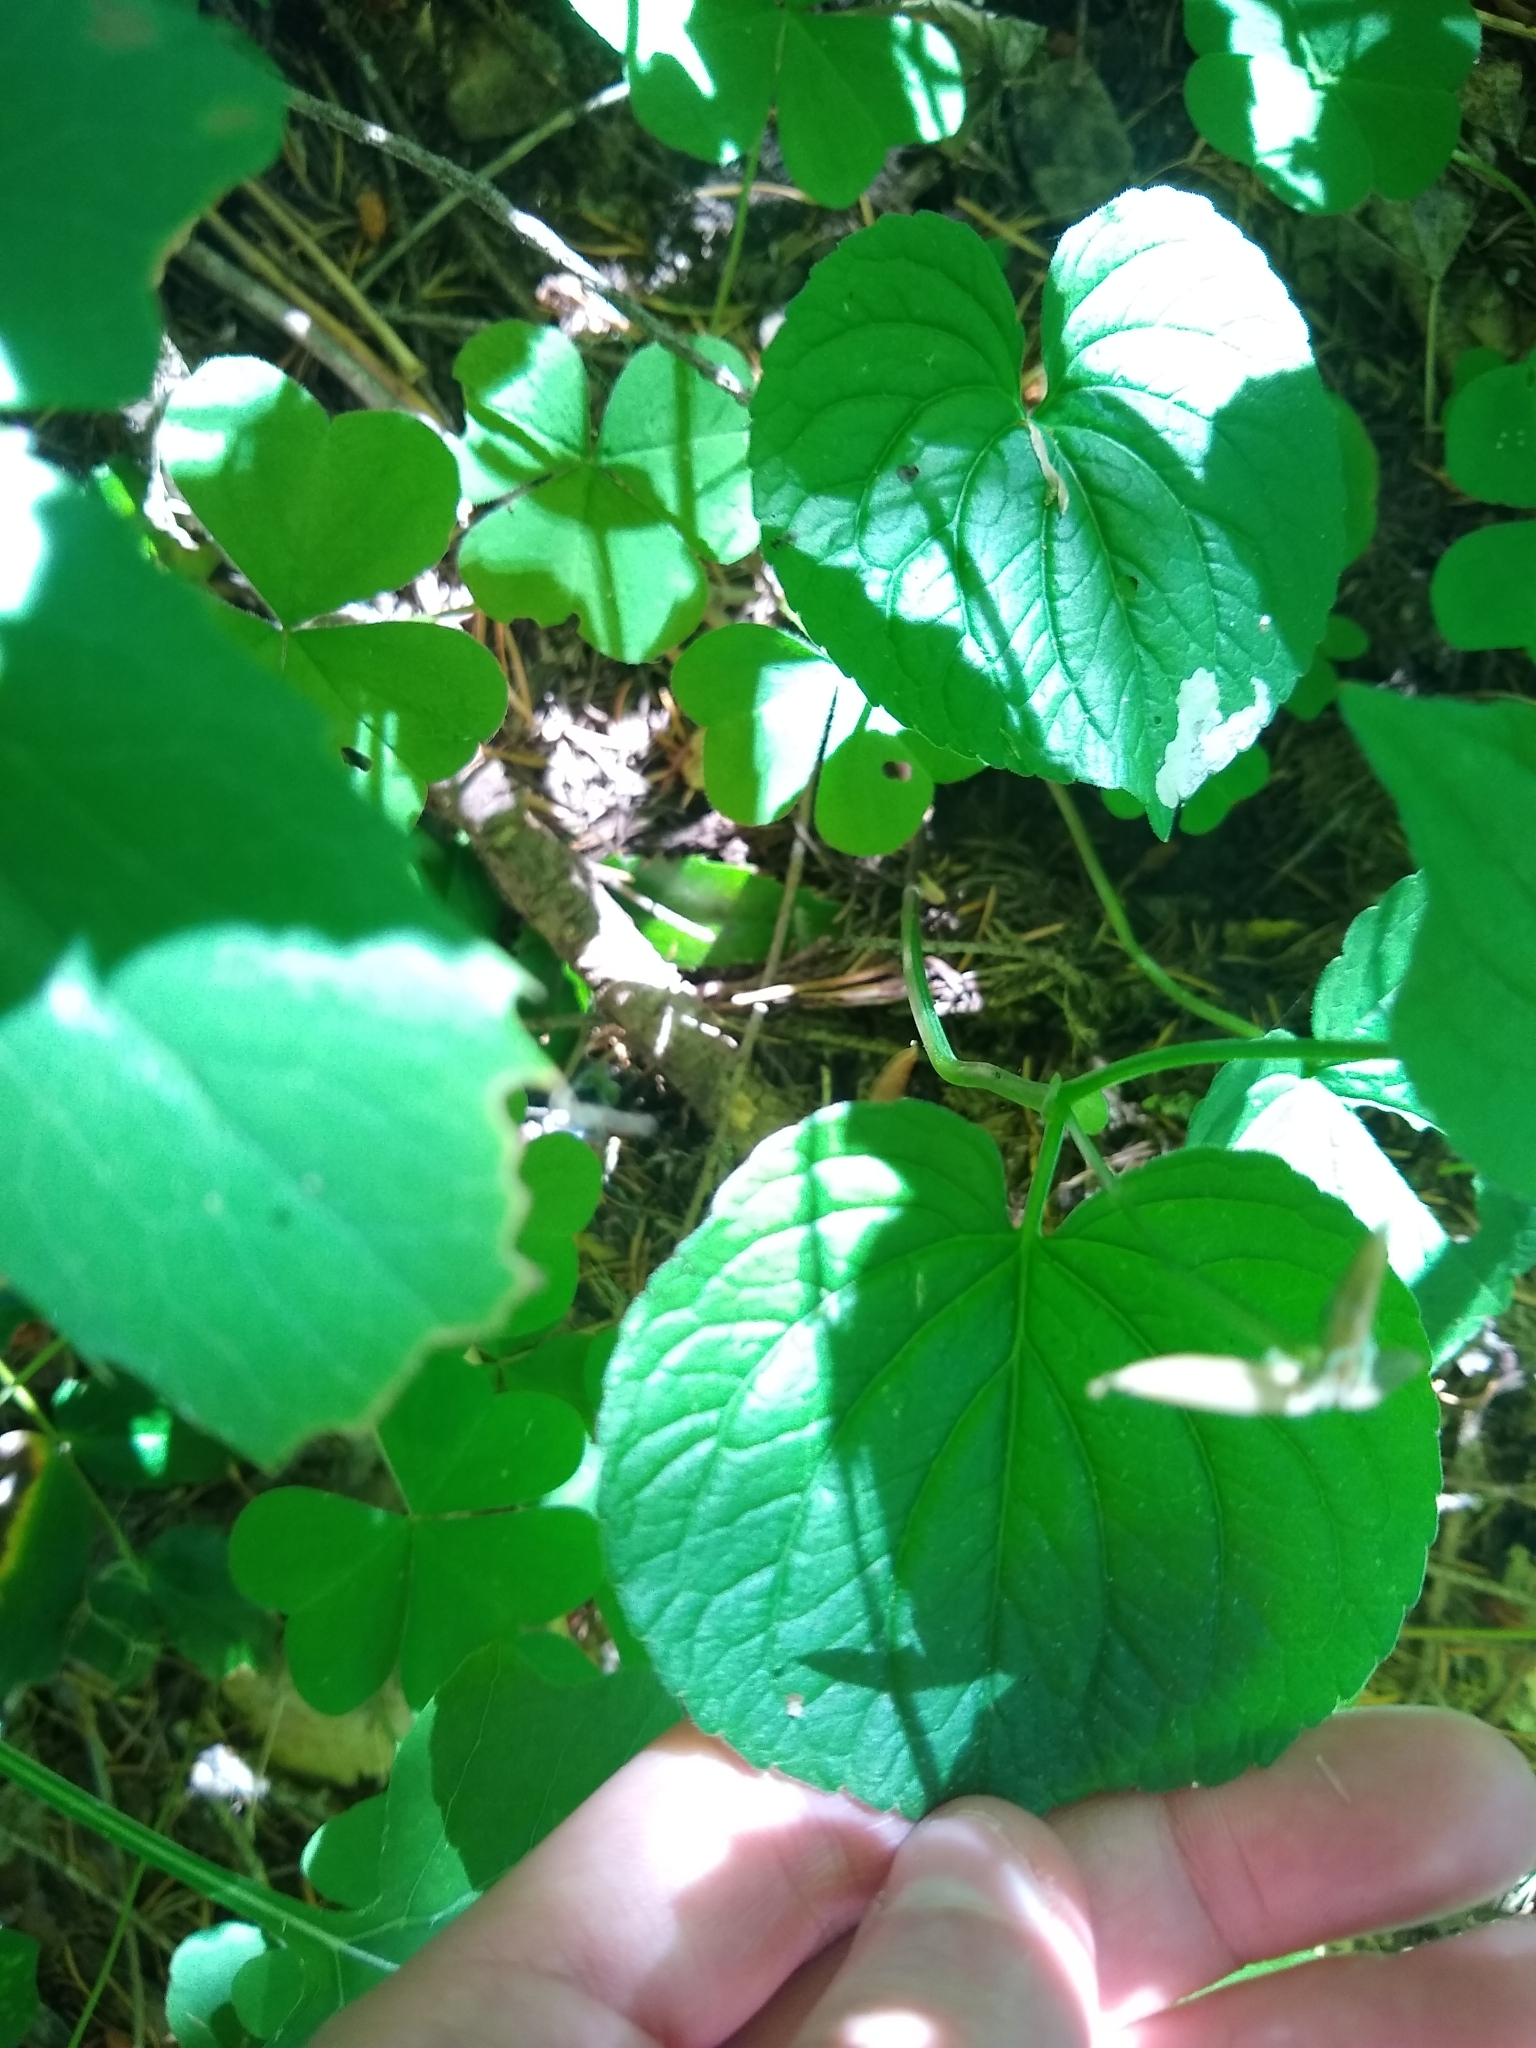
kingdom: Plantae
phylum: Tracheophyta
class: Magnoliopsida
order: Malpighiales
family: Violaceae
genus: Viola
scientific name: Viola glabella
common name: Stream violet
